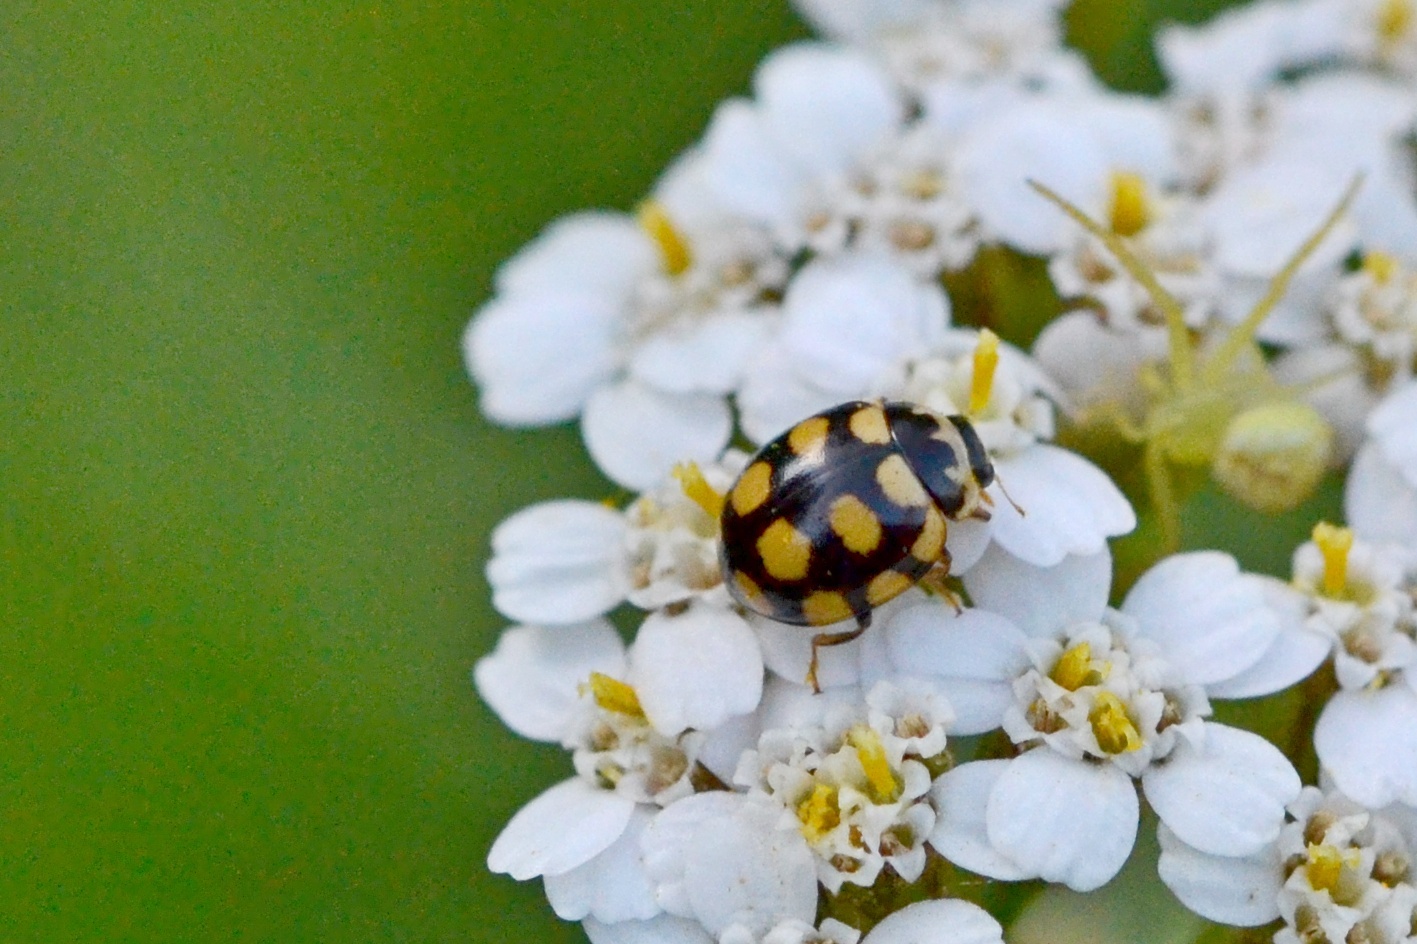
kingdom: Animalia
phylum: Arthropoda
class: Insecta
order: Coleoptera
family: Coccinellidae
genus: Coccinula
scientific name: Coccinula quatuordecimpustulata
